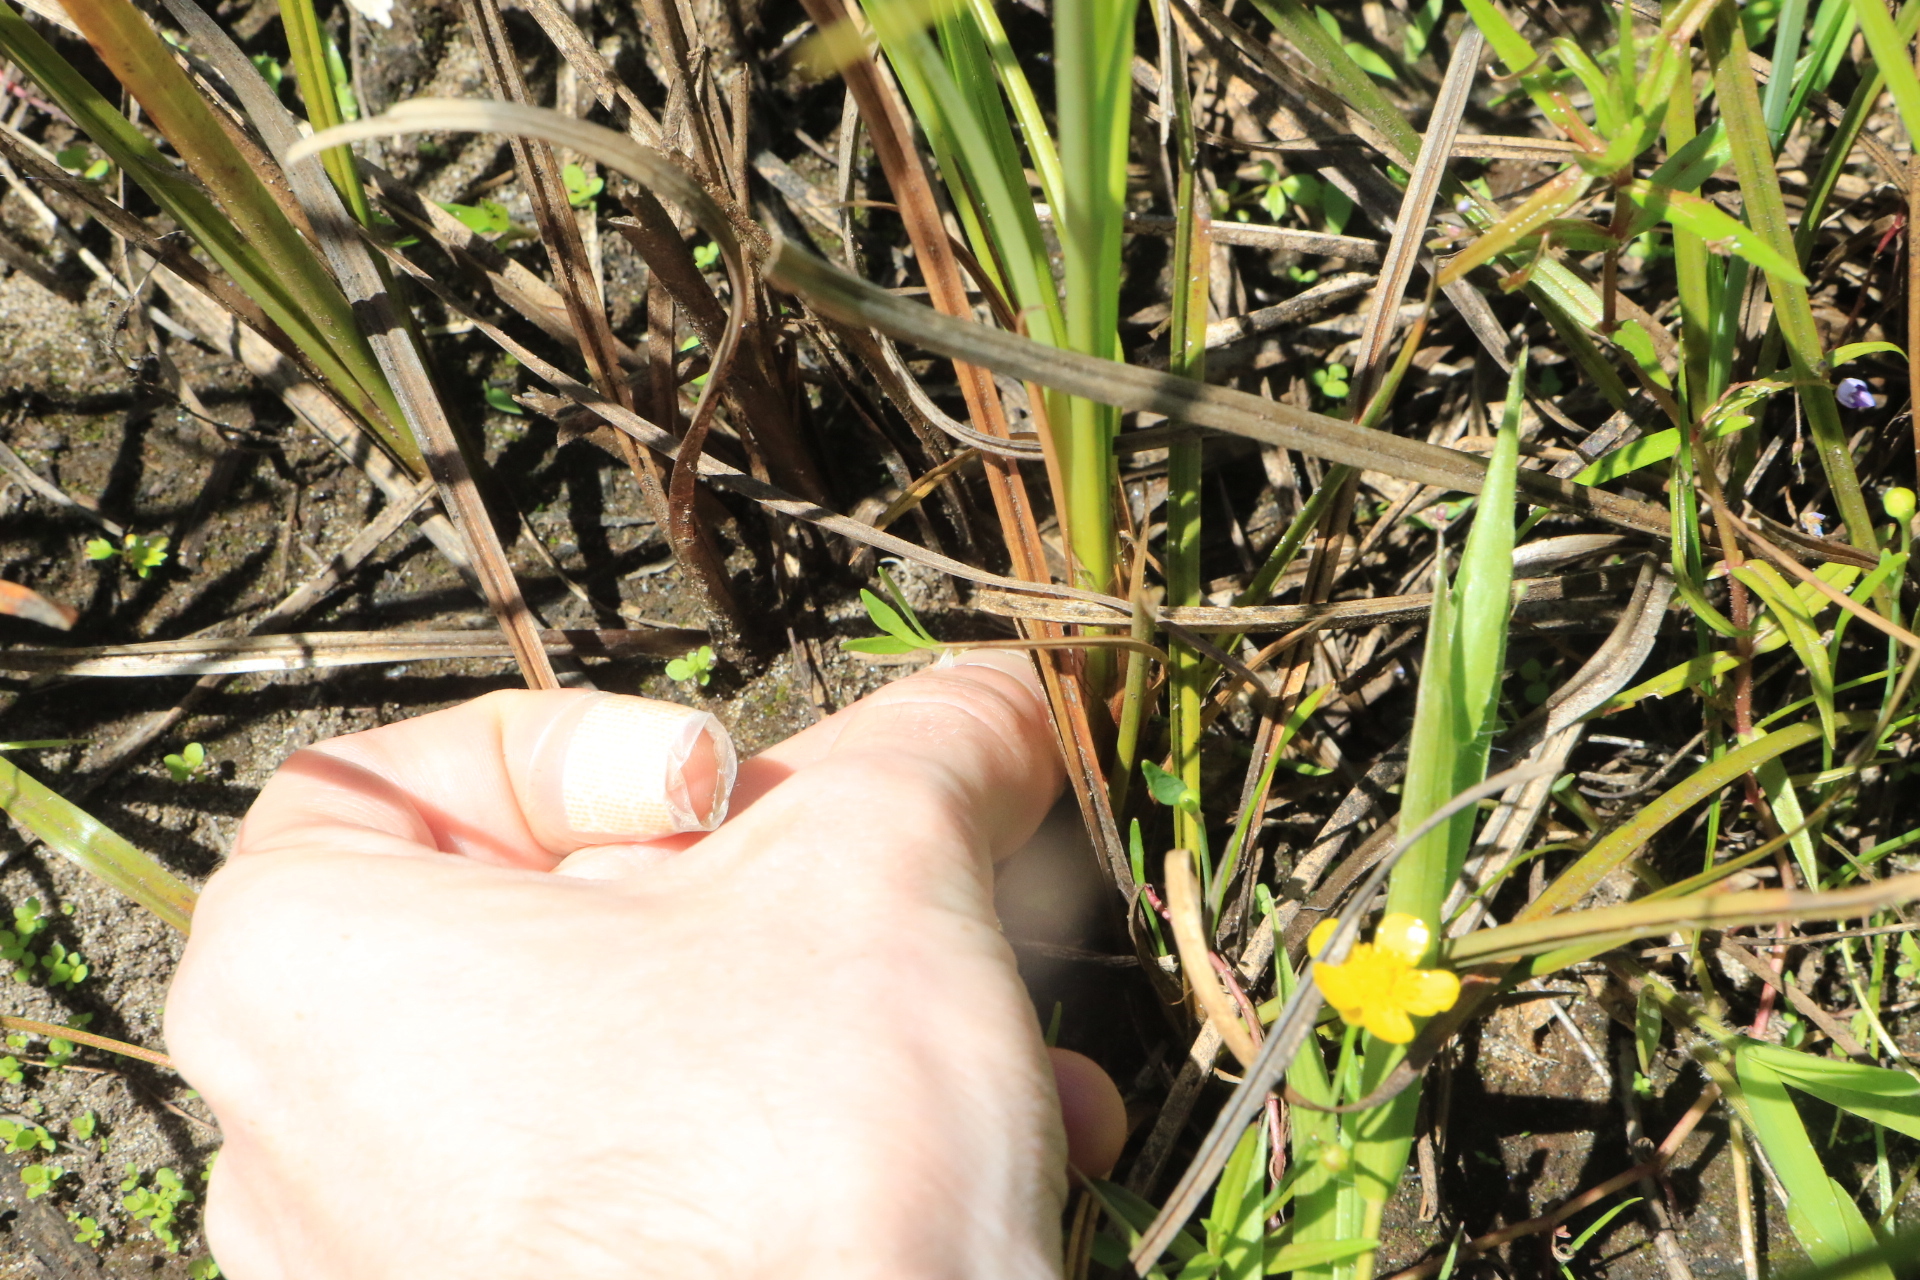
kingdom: Plantae
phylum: Tracheophyta
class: Magnoliopsida
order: Ranunculales
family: Ranunculaceae
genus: Ranunculus
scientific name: Ranunculus flammula
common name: Lesser spearwort
